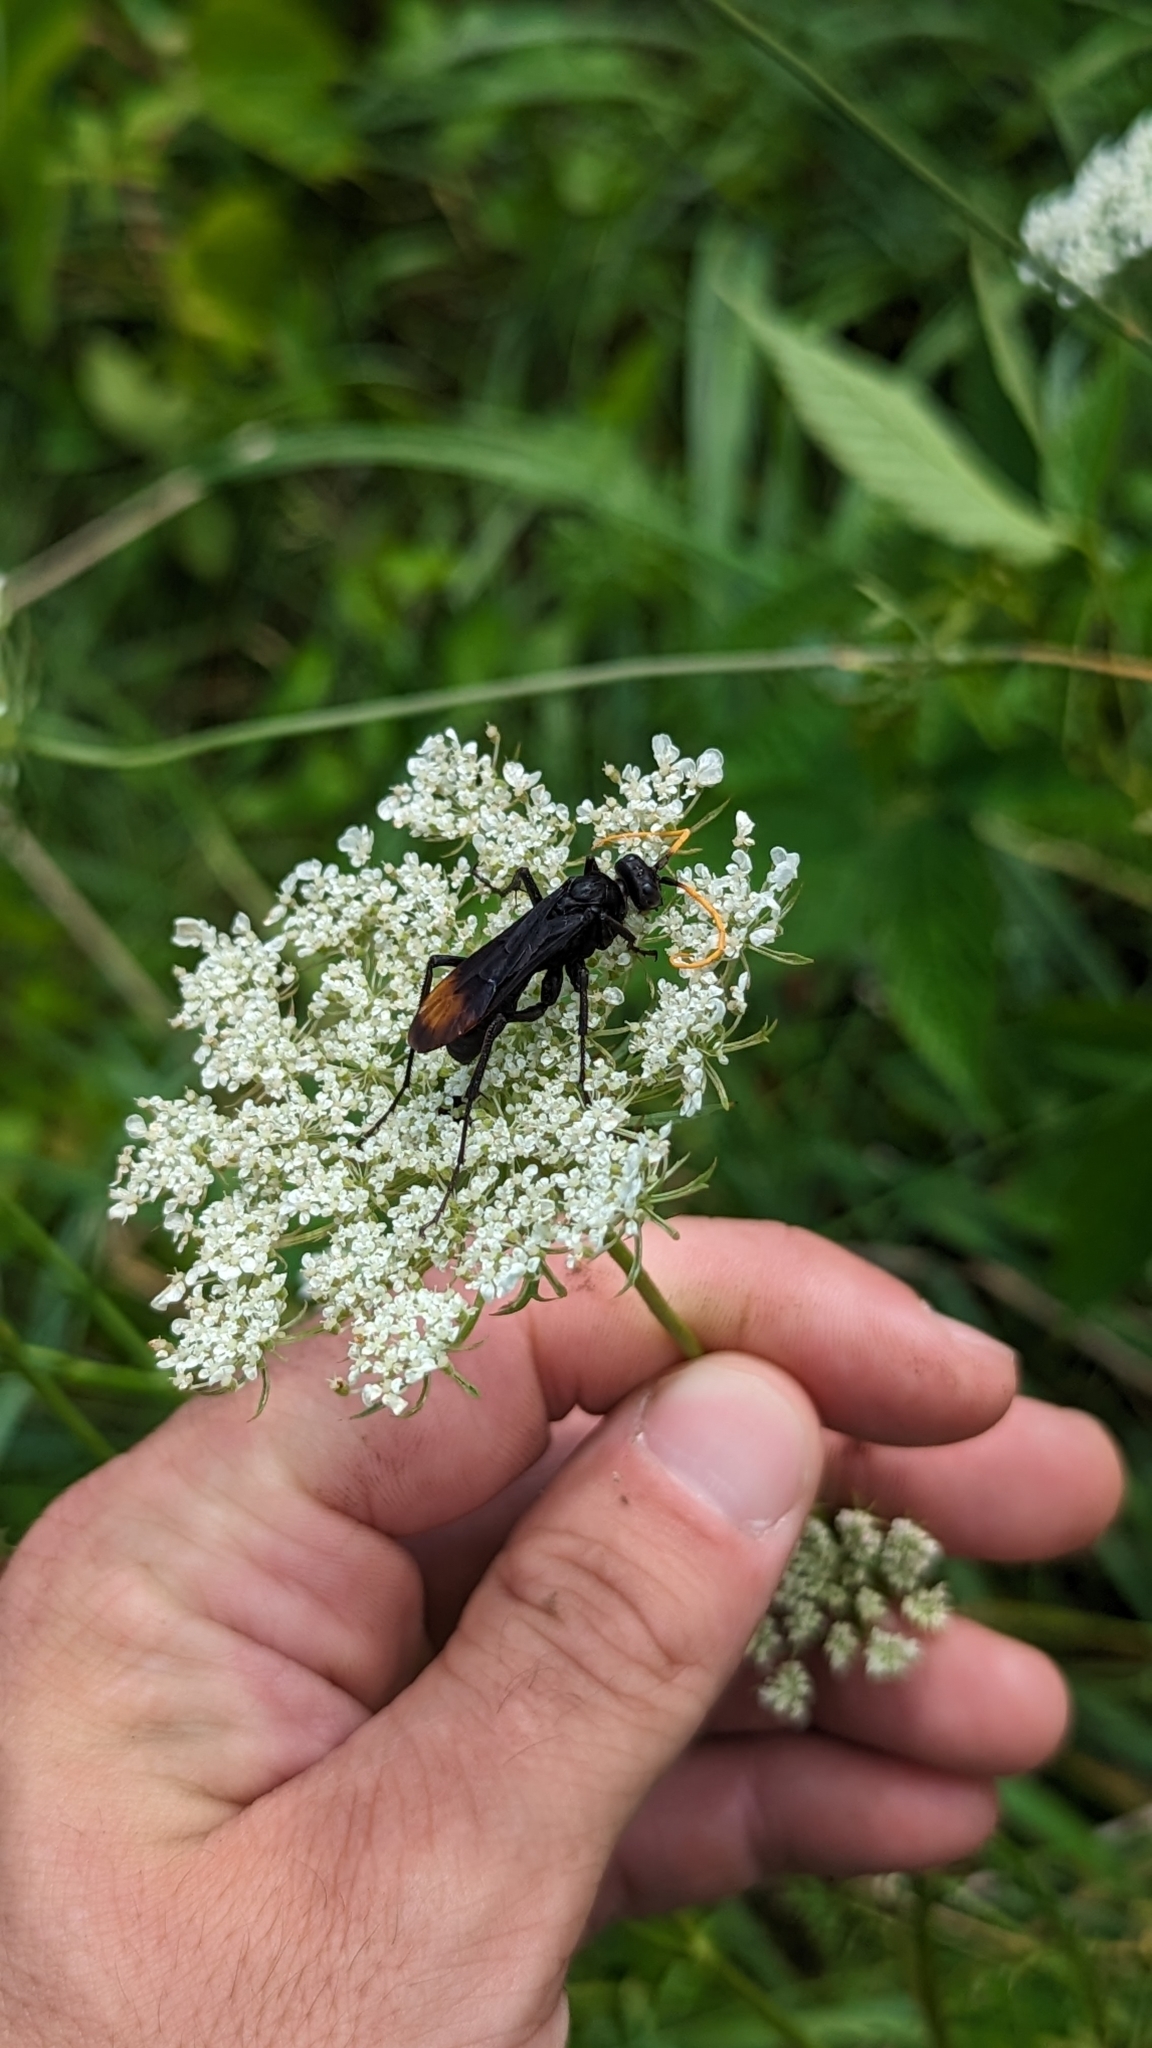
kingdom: Animalia
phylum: Arthropoda
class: Insecta
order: Hymenoptera
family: Pompilidae
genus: Entypus
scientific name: Entypus unifasciatus
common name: Eastern tawny-horned spider wasp
